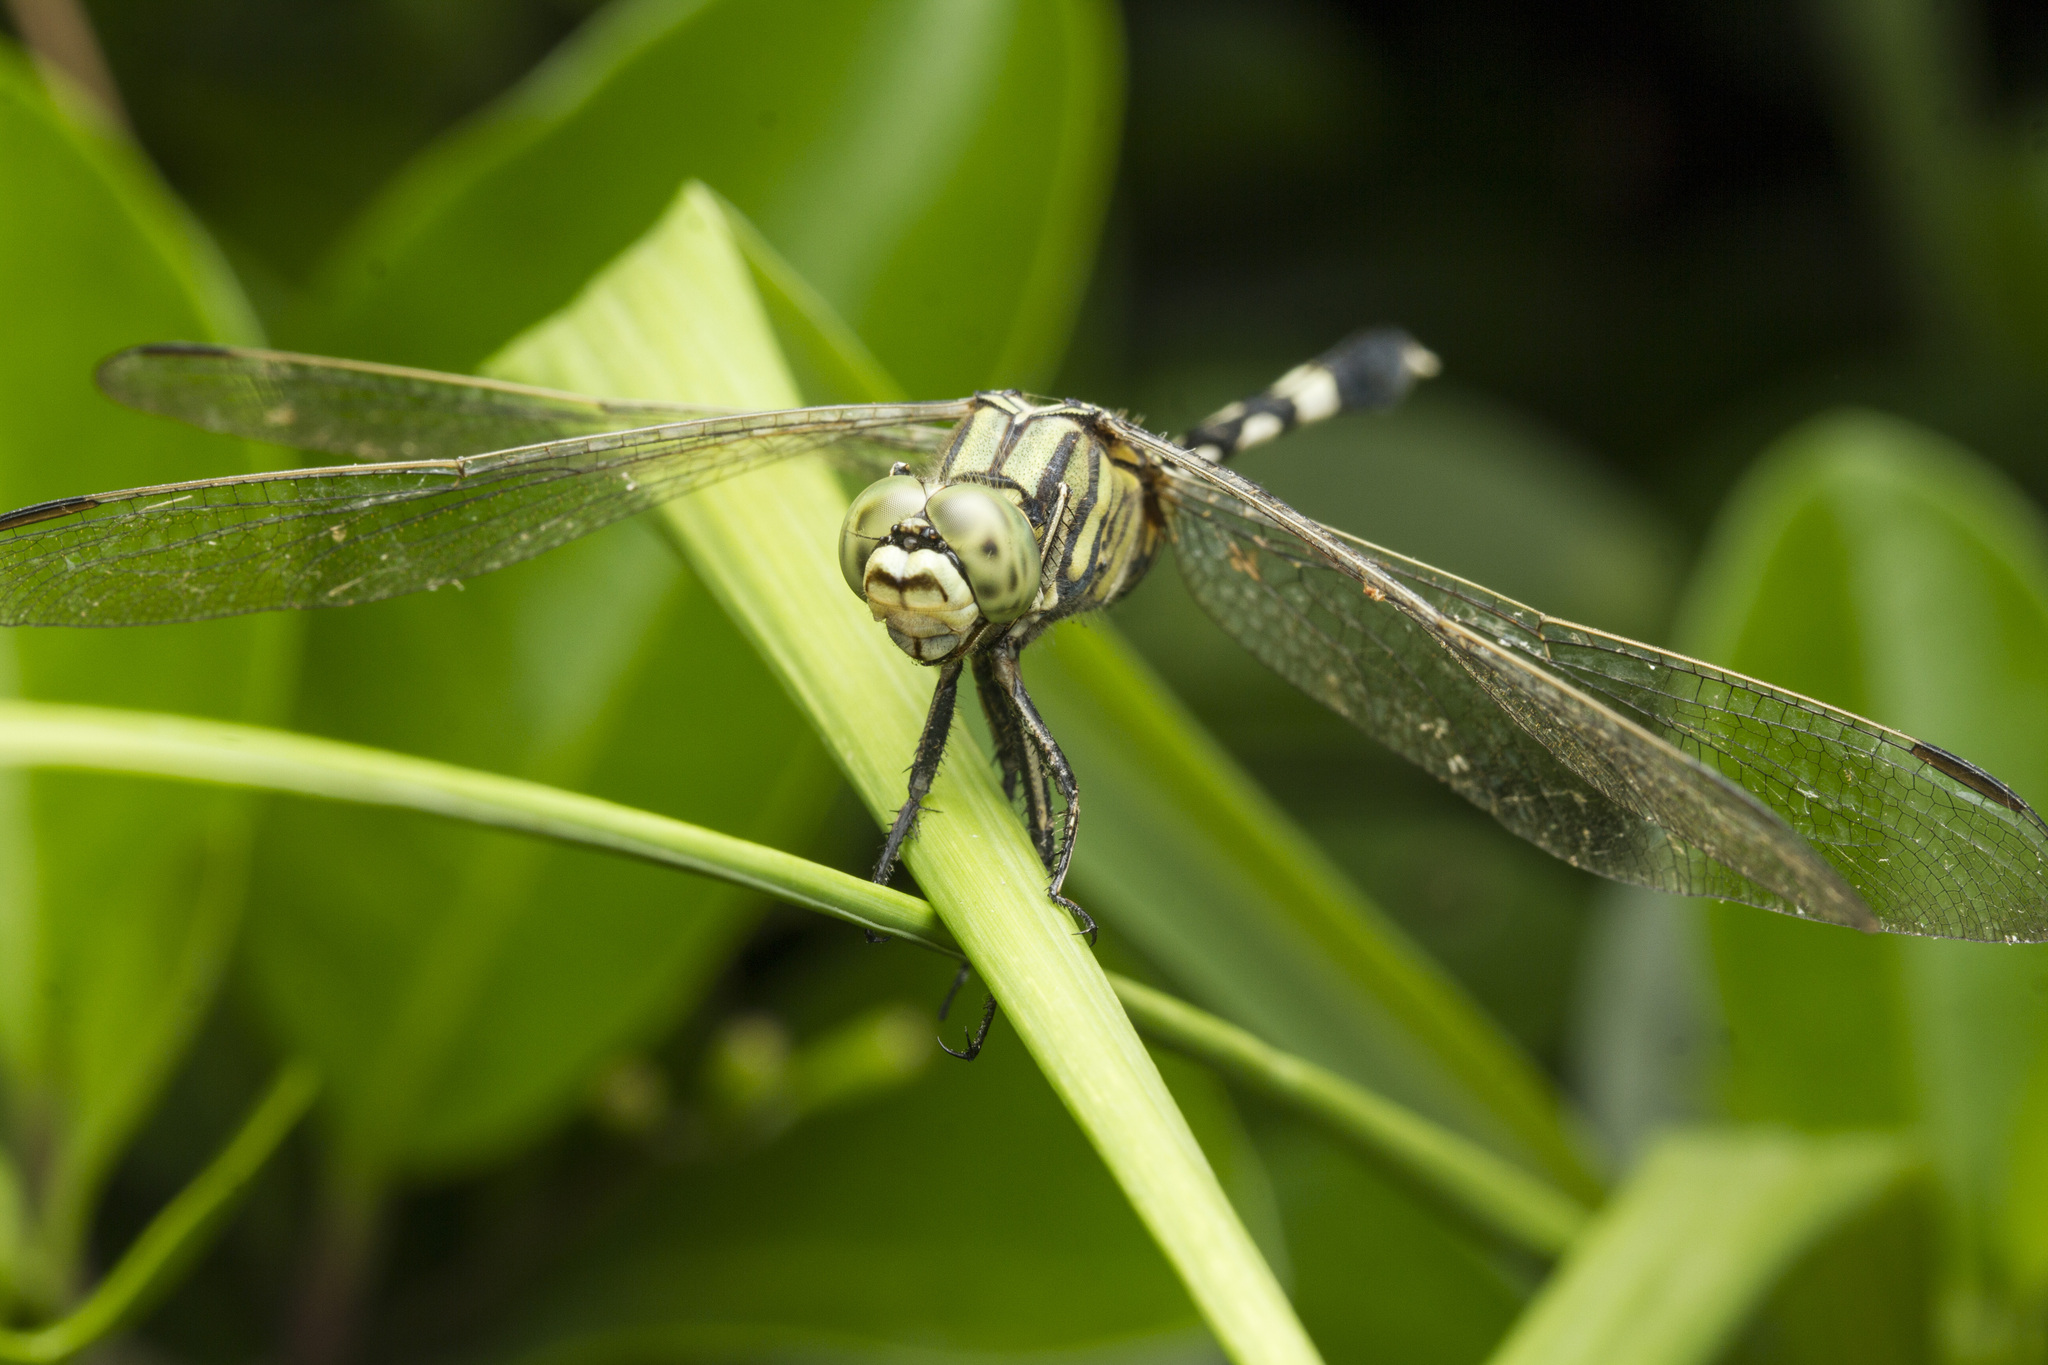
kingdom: Animalia
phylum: Arthropoda
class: Insecta
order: Odonata
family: Libellulidae
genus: Orthetrum
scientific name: Orthetrum sabina
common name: Slender skimmer
